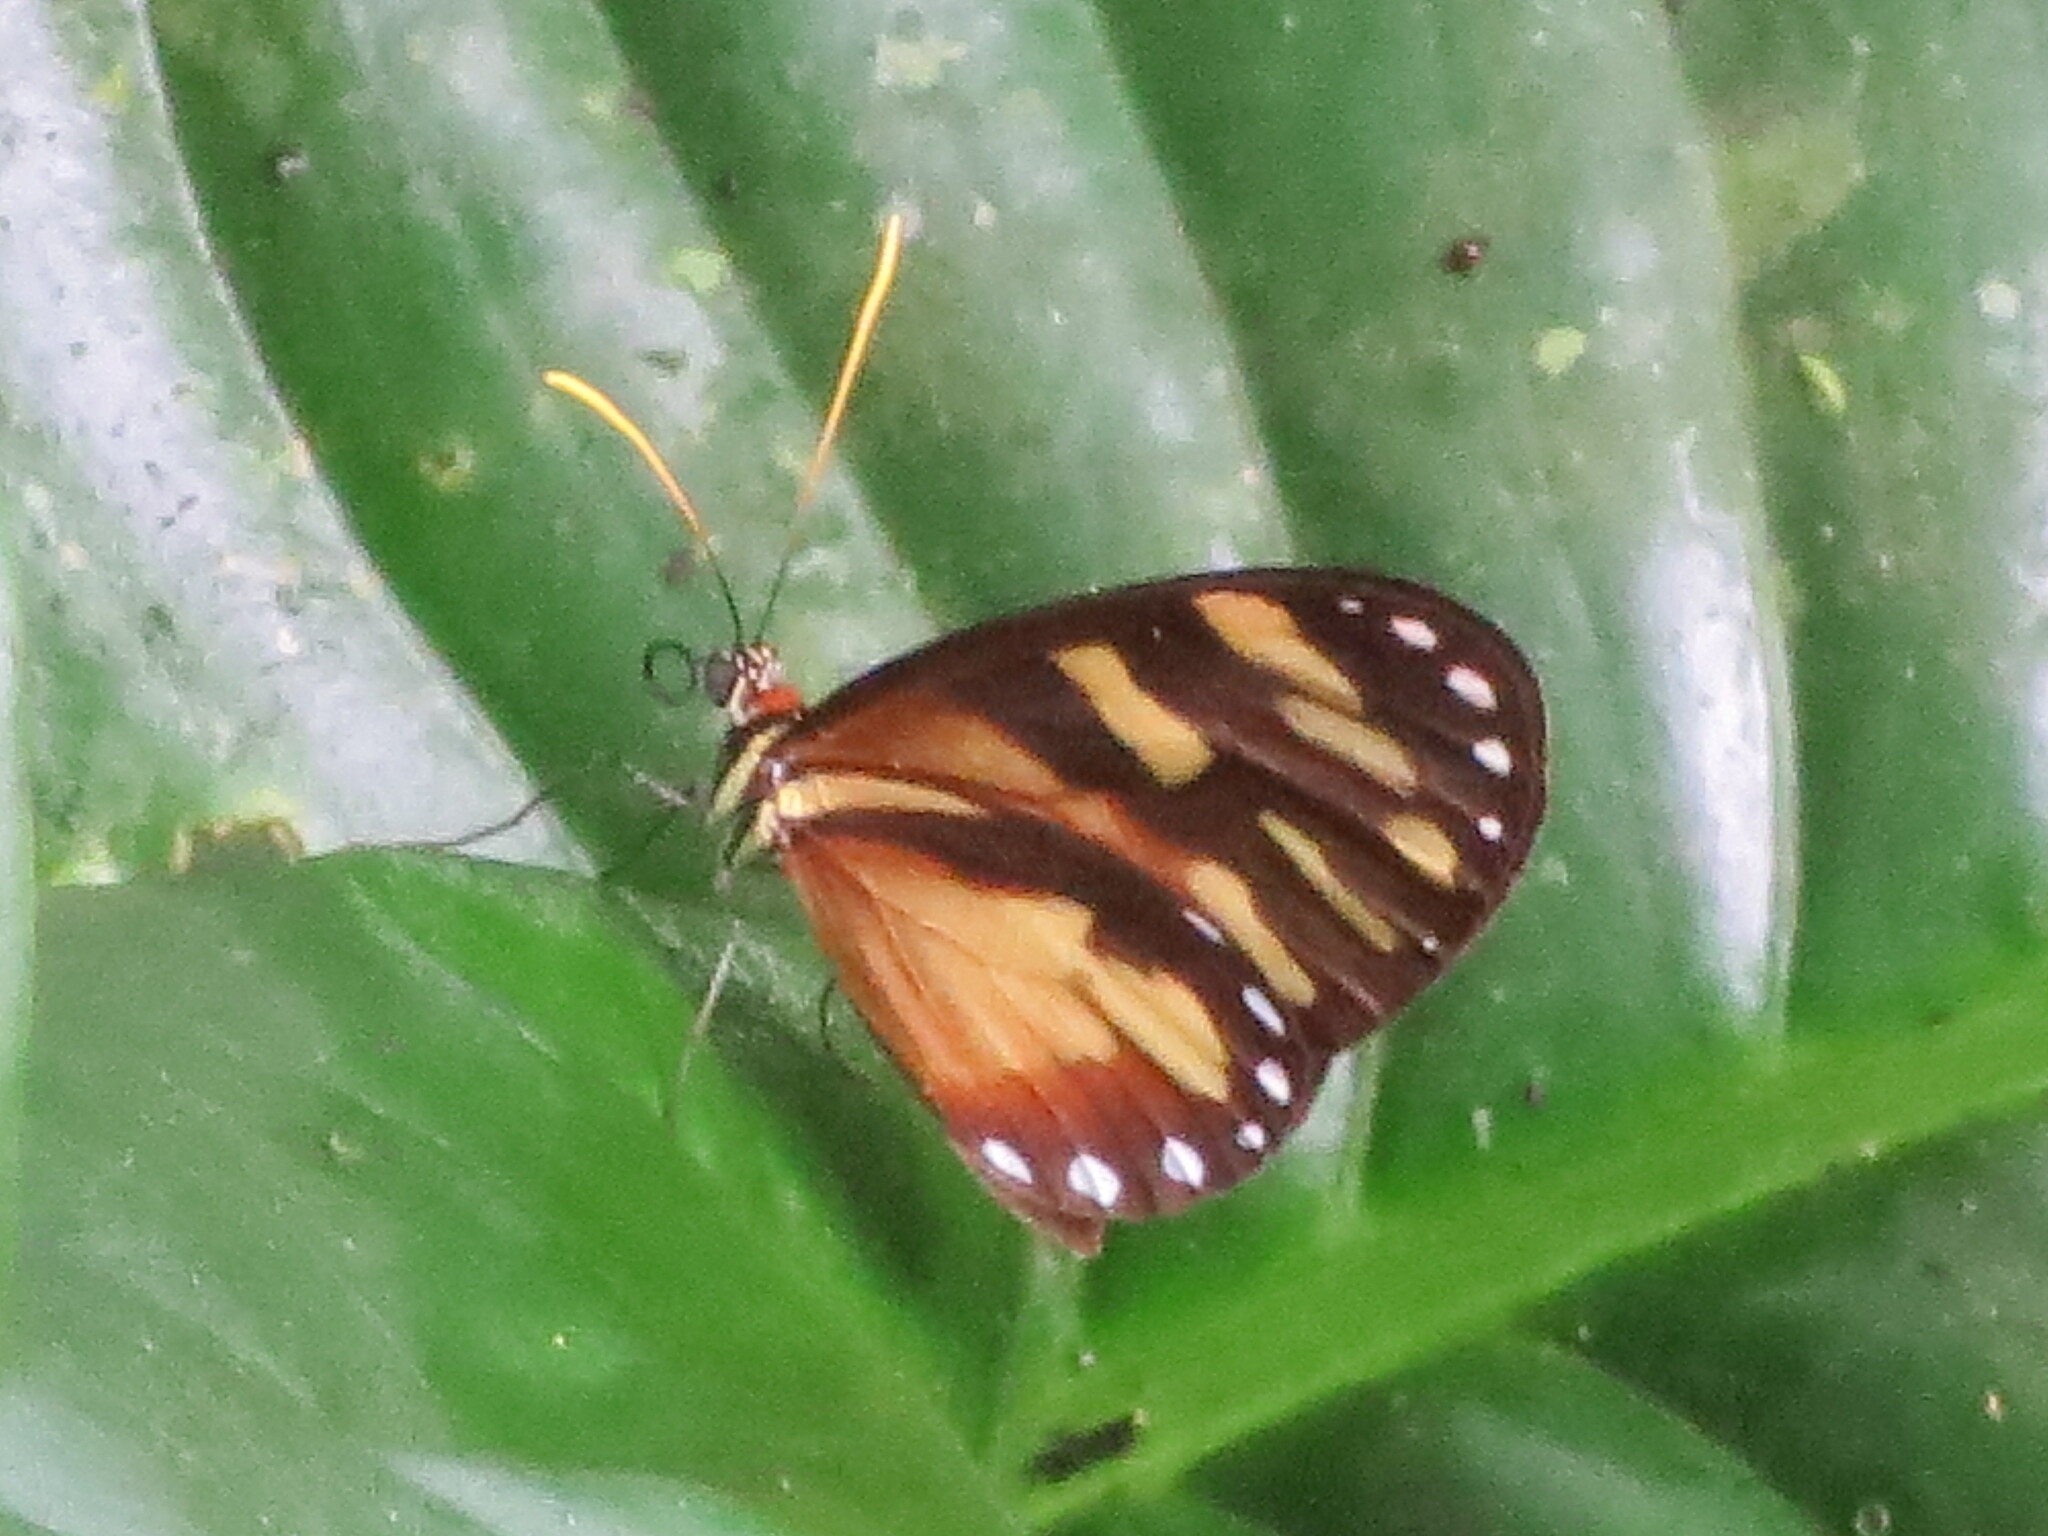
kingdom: Animalia
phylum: Arthropoda
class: Insecta
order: Lepidoptera
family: Nymphalidae
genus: Ithomia
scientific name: Ithomia heraldica
